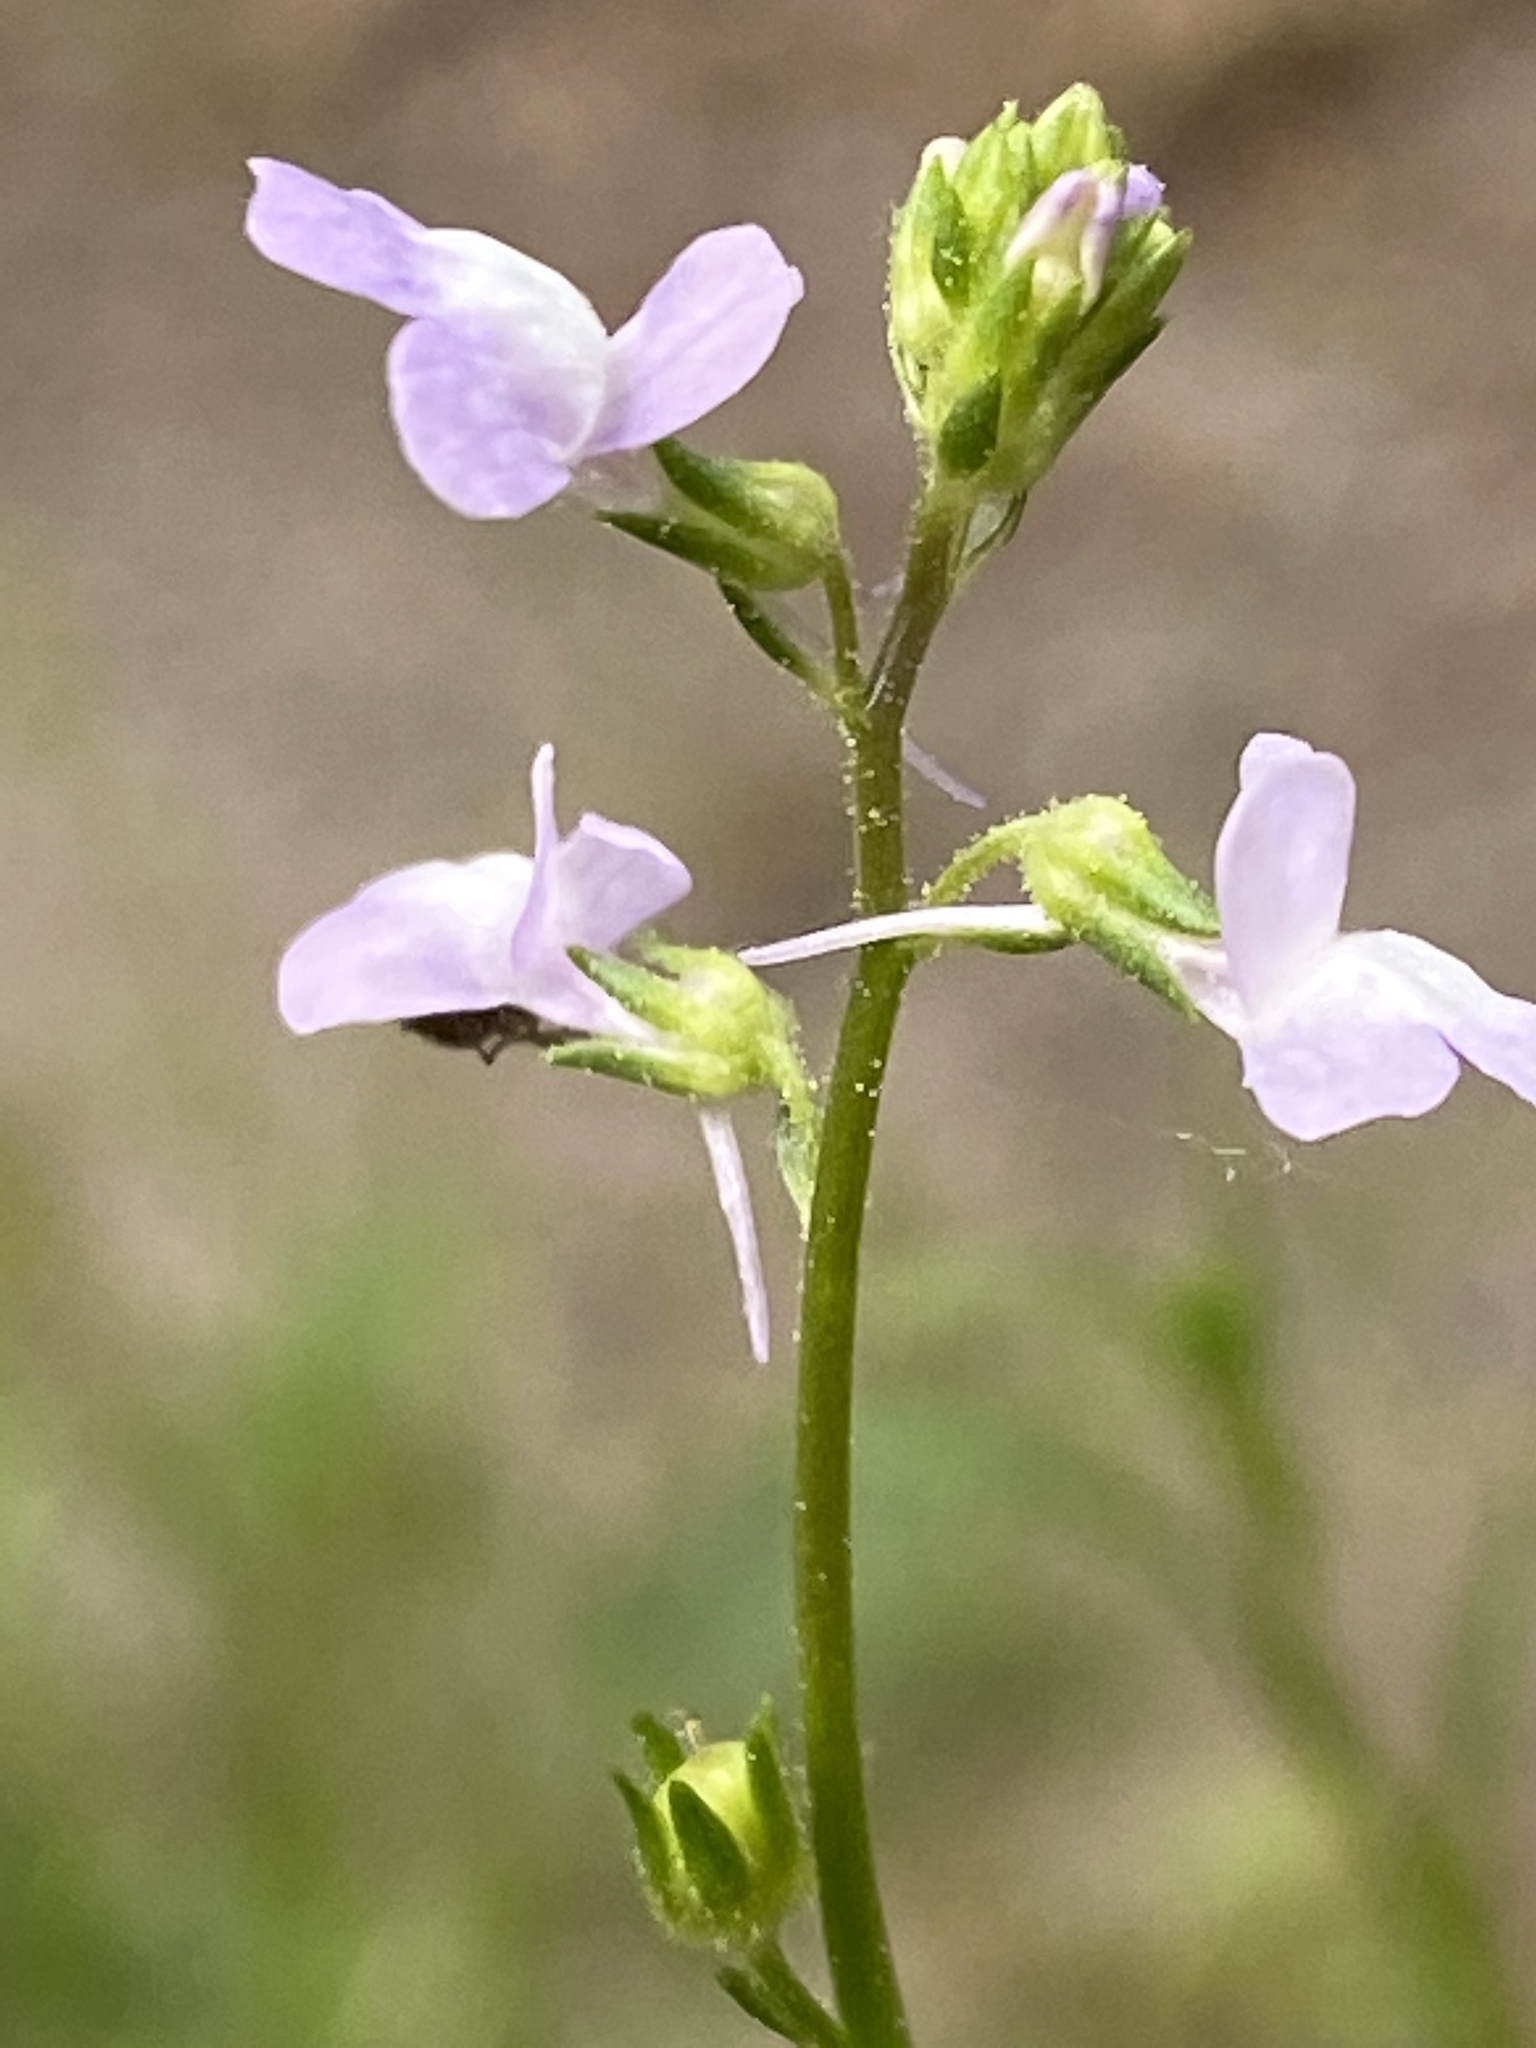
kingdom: Plantae
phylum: Tracheophyta
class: Magnoliopsida
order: Lamiales
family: Plantaginaceae
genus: Nuttallanthus
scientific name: Nuttallanthus canadensis
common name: Blue toadflax
